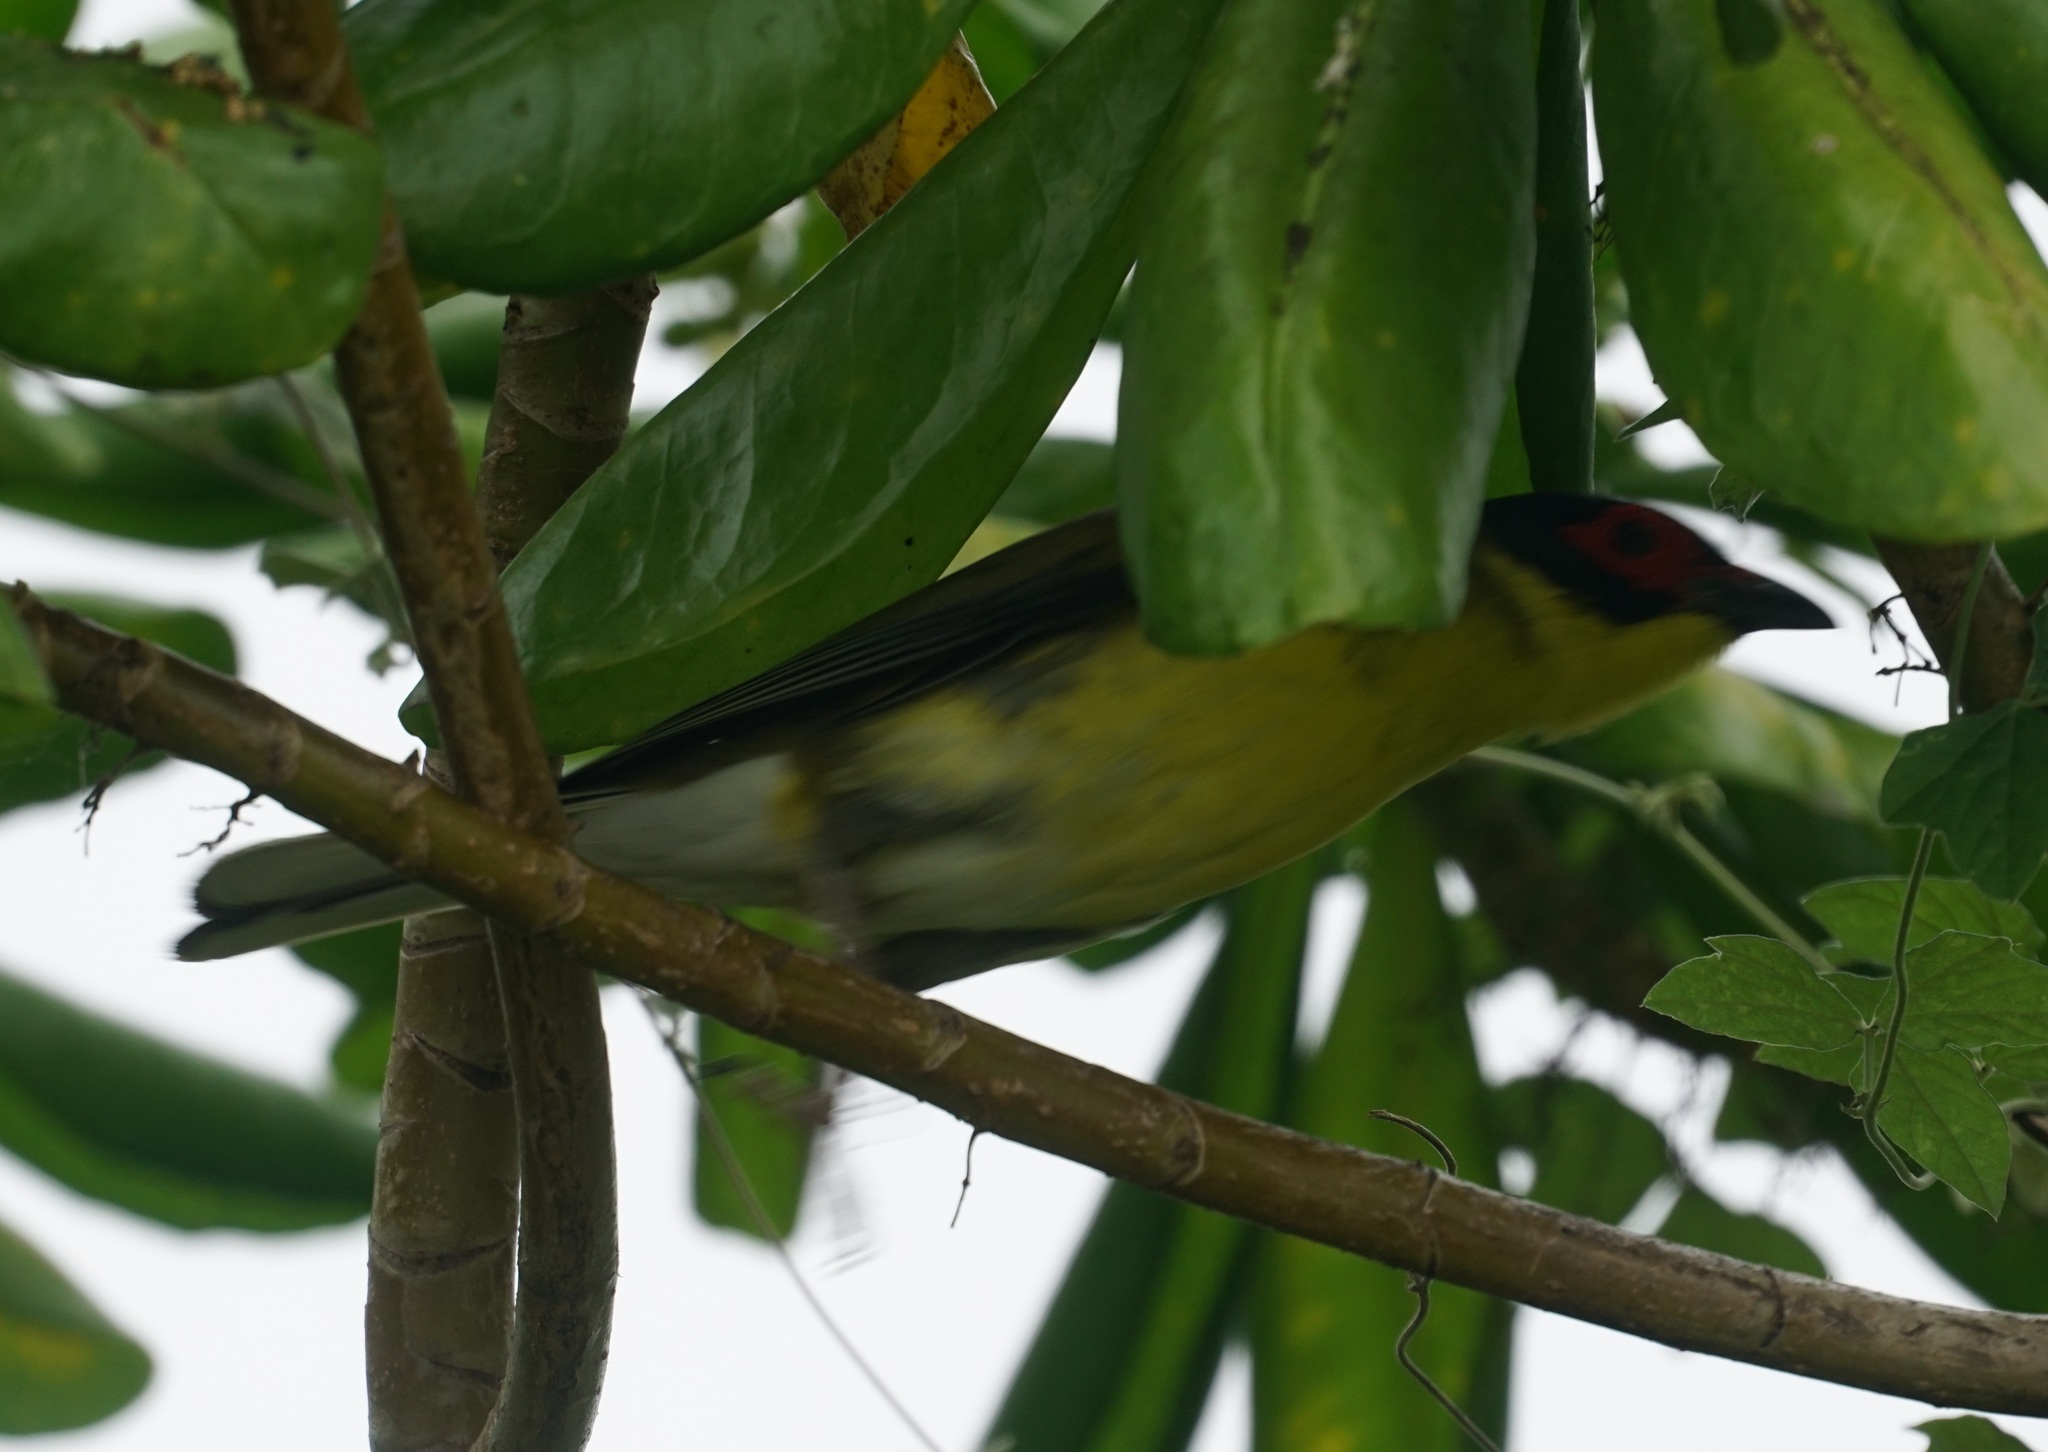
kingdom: Animalia
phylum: Chordata
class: Aves
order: Passeriformes
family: Oriolidae
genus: Sphecotheres
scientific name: Sphecotheres vieilloti
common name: Australasian figbird
